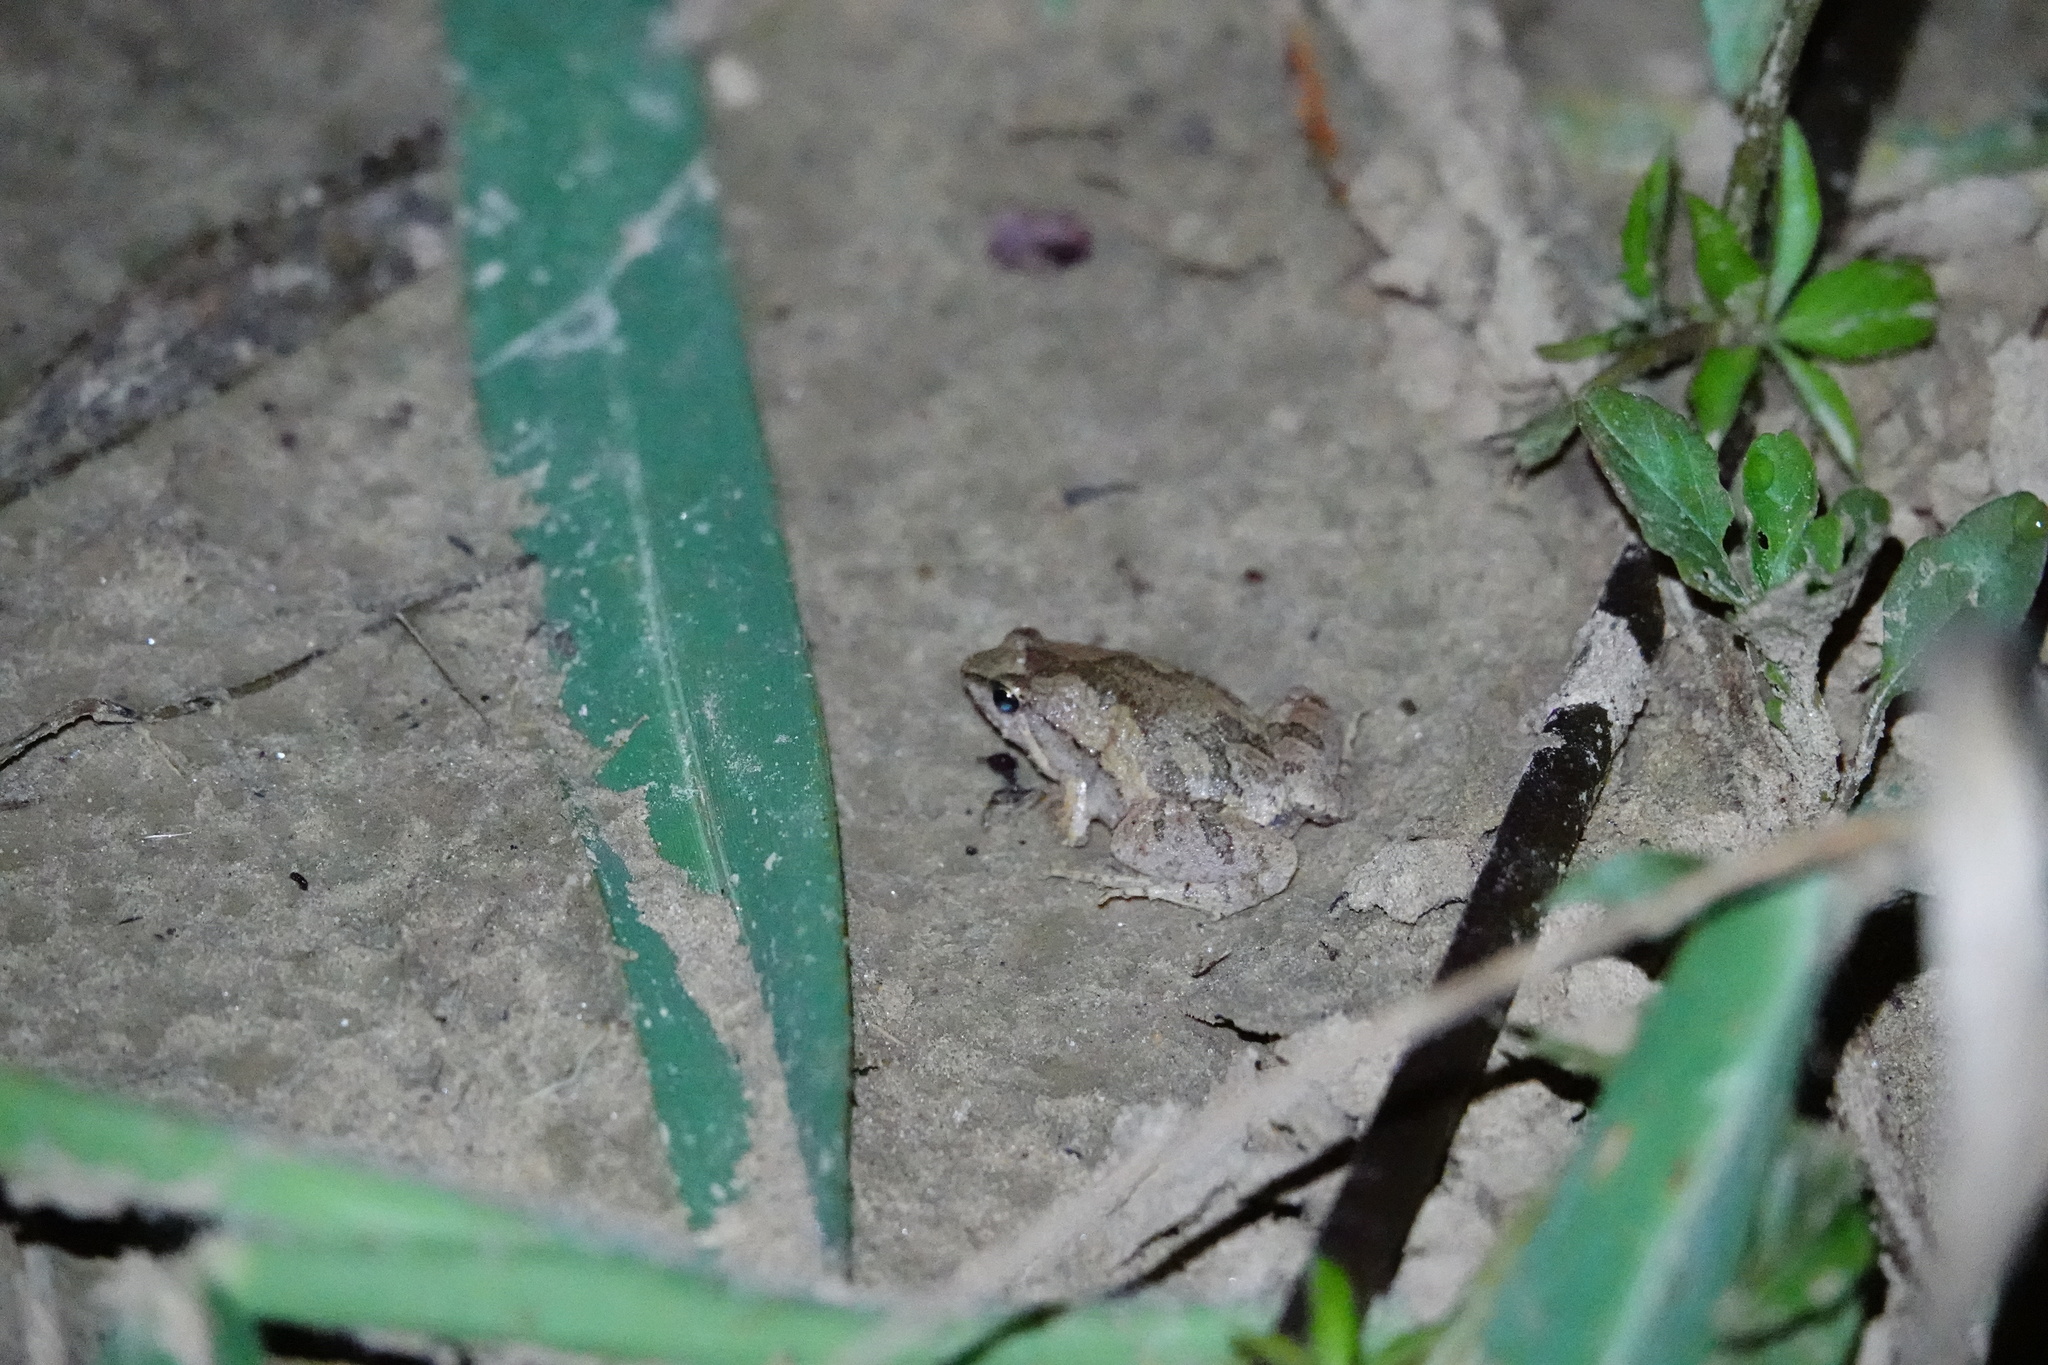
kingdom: Animalia
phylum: Chordata
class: Amphibia
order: Anura
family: Microhylidae
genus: Microhyla
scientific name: Microhyla fissipes
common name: Ornate narrow-mouthed frog
